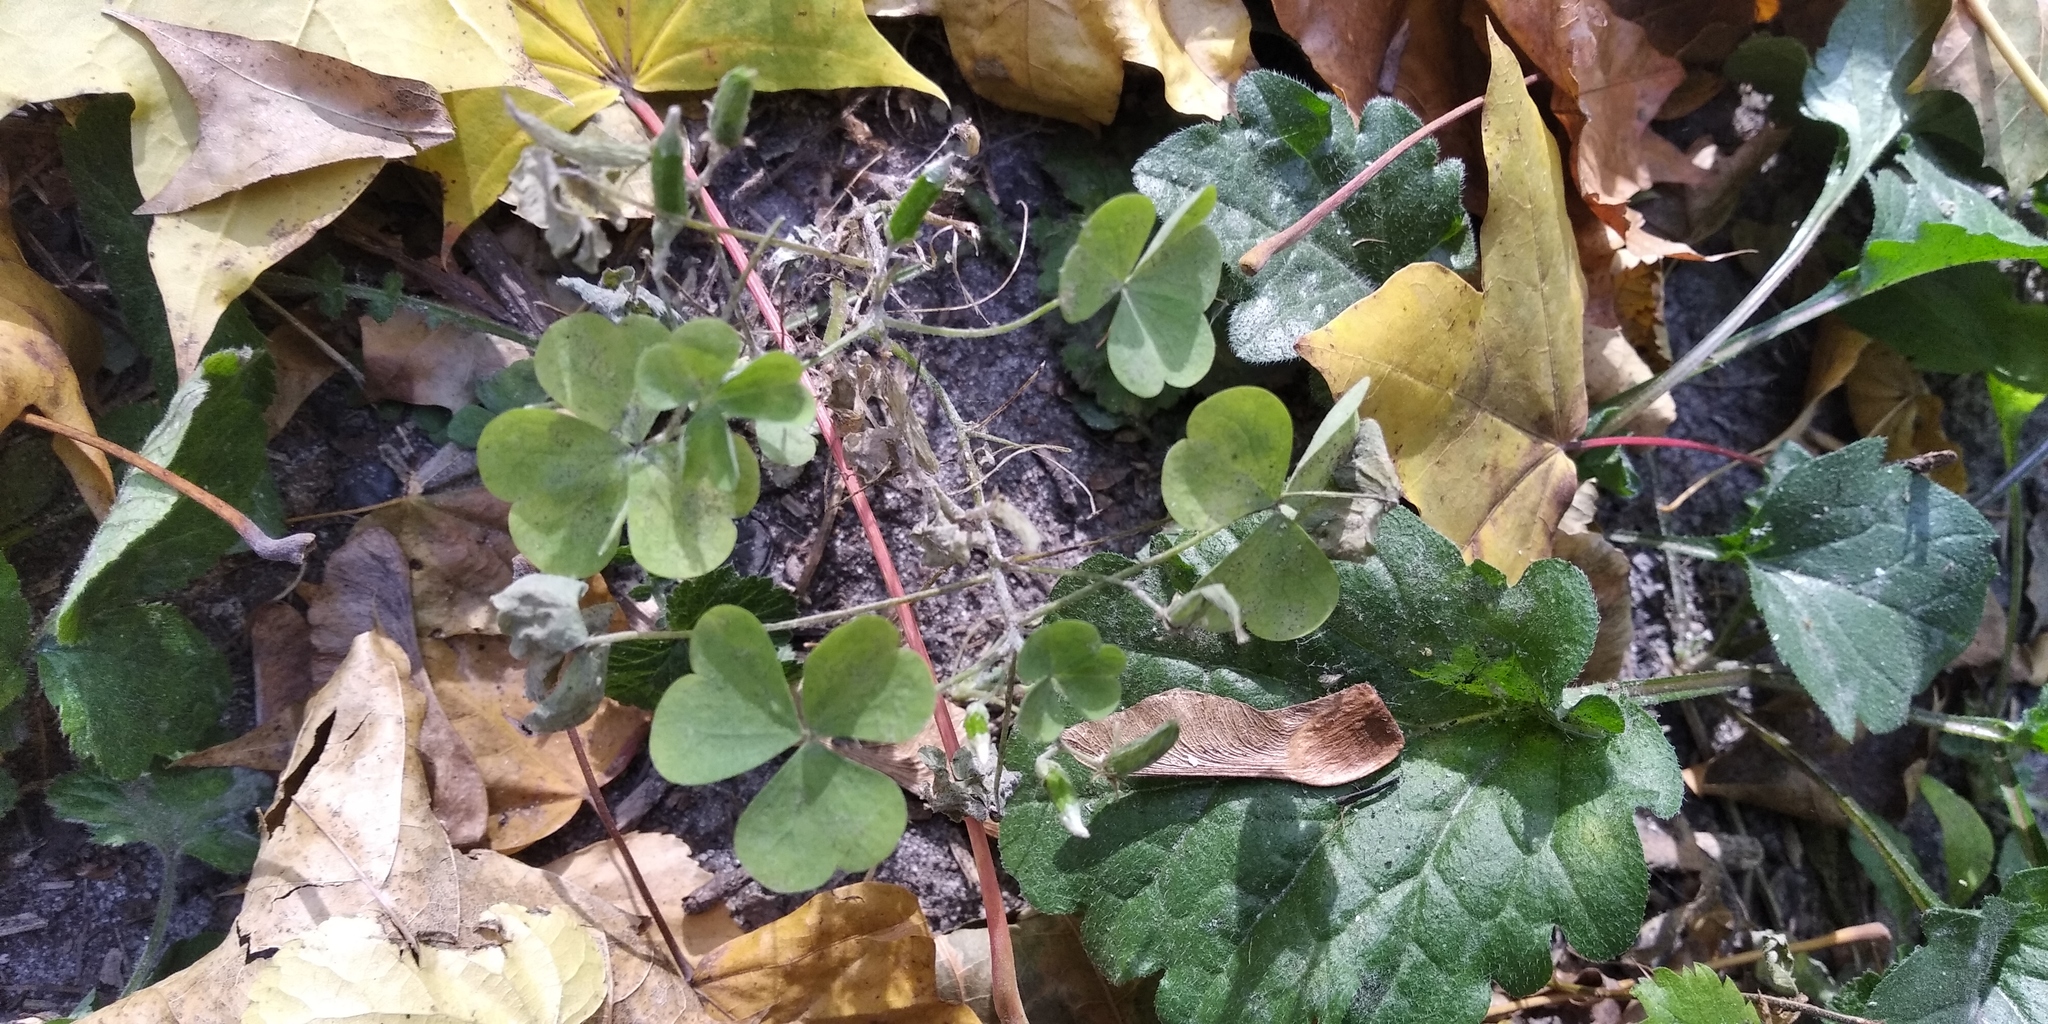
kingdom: Plantae
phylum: Tracheophyta
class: Magnoliopsida
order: Oxalidales
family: Oxalidaceae
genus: Oxalis
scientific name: Oxalis corniculata
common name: Procumbent yellow-sorrel
